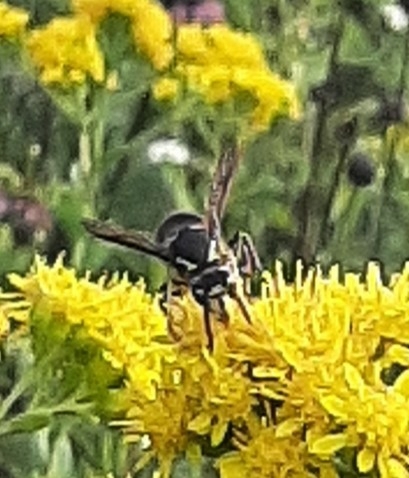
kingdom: Animalia
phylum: Arthropoda
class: Insecta
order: Hymenoptera
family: Vespidae
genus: Dolichovespula
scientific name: Dolichovespula maculata
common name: Bald-faced hornet
